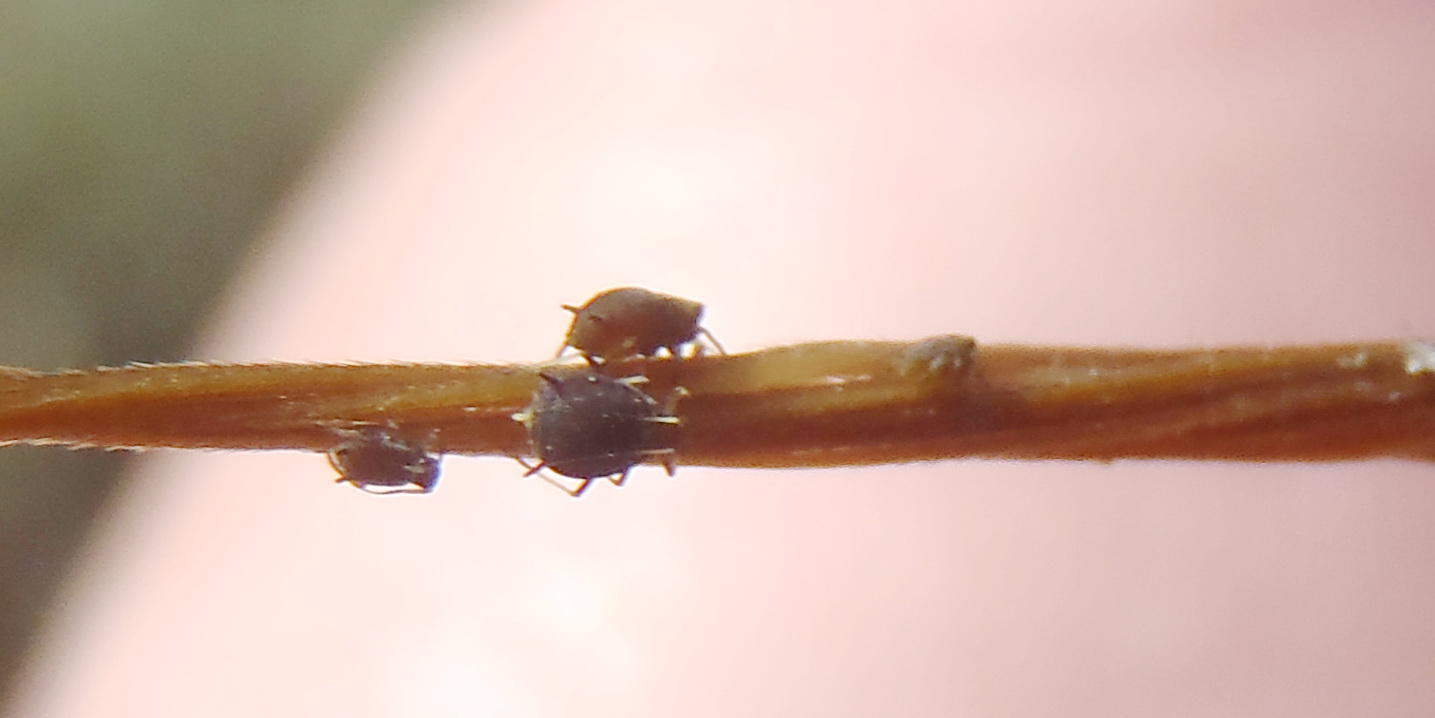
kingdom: Animalia
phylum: Arthropoda
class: Insecta
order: Hemiptera
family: Aphididae
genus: Hysteroneura
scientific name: Hysteroneura setariae
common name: Rusty plum aphid
